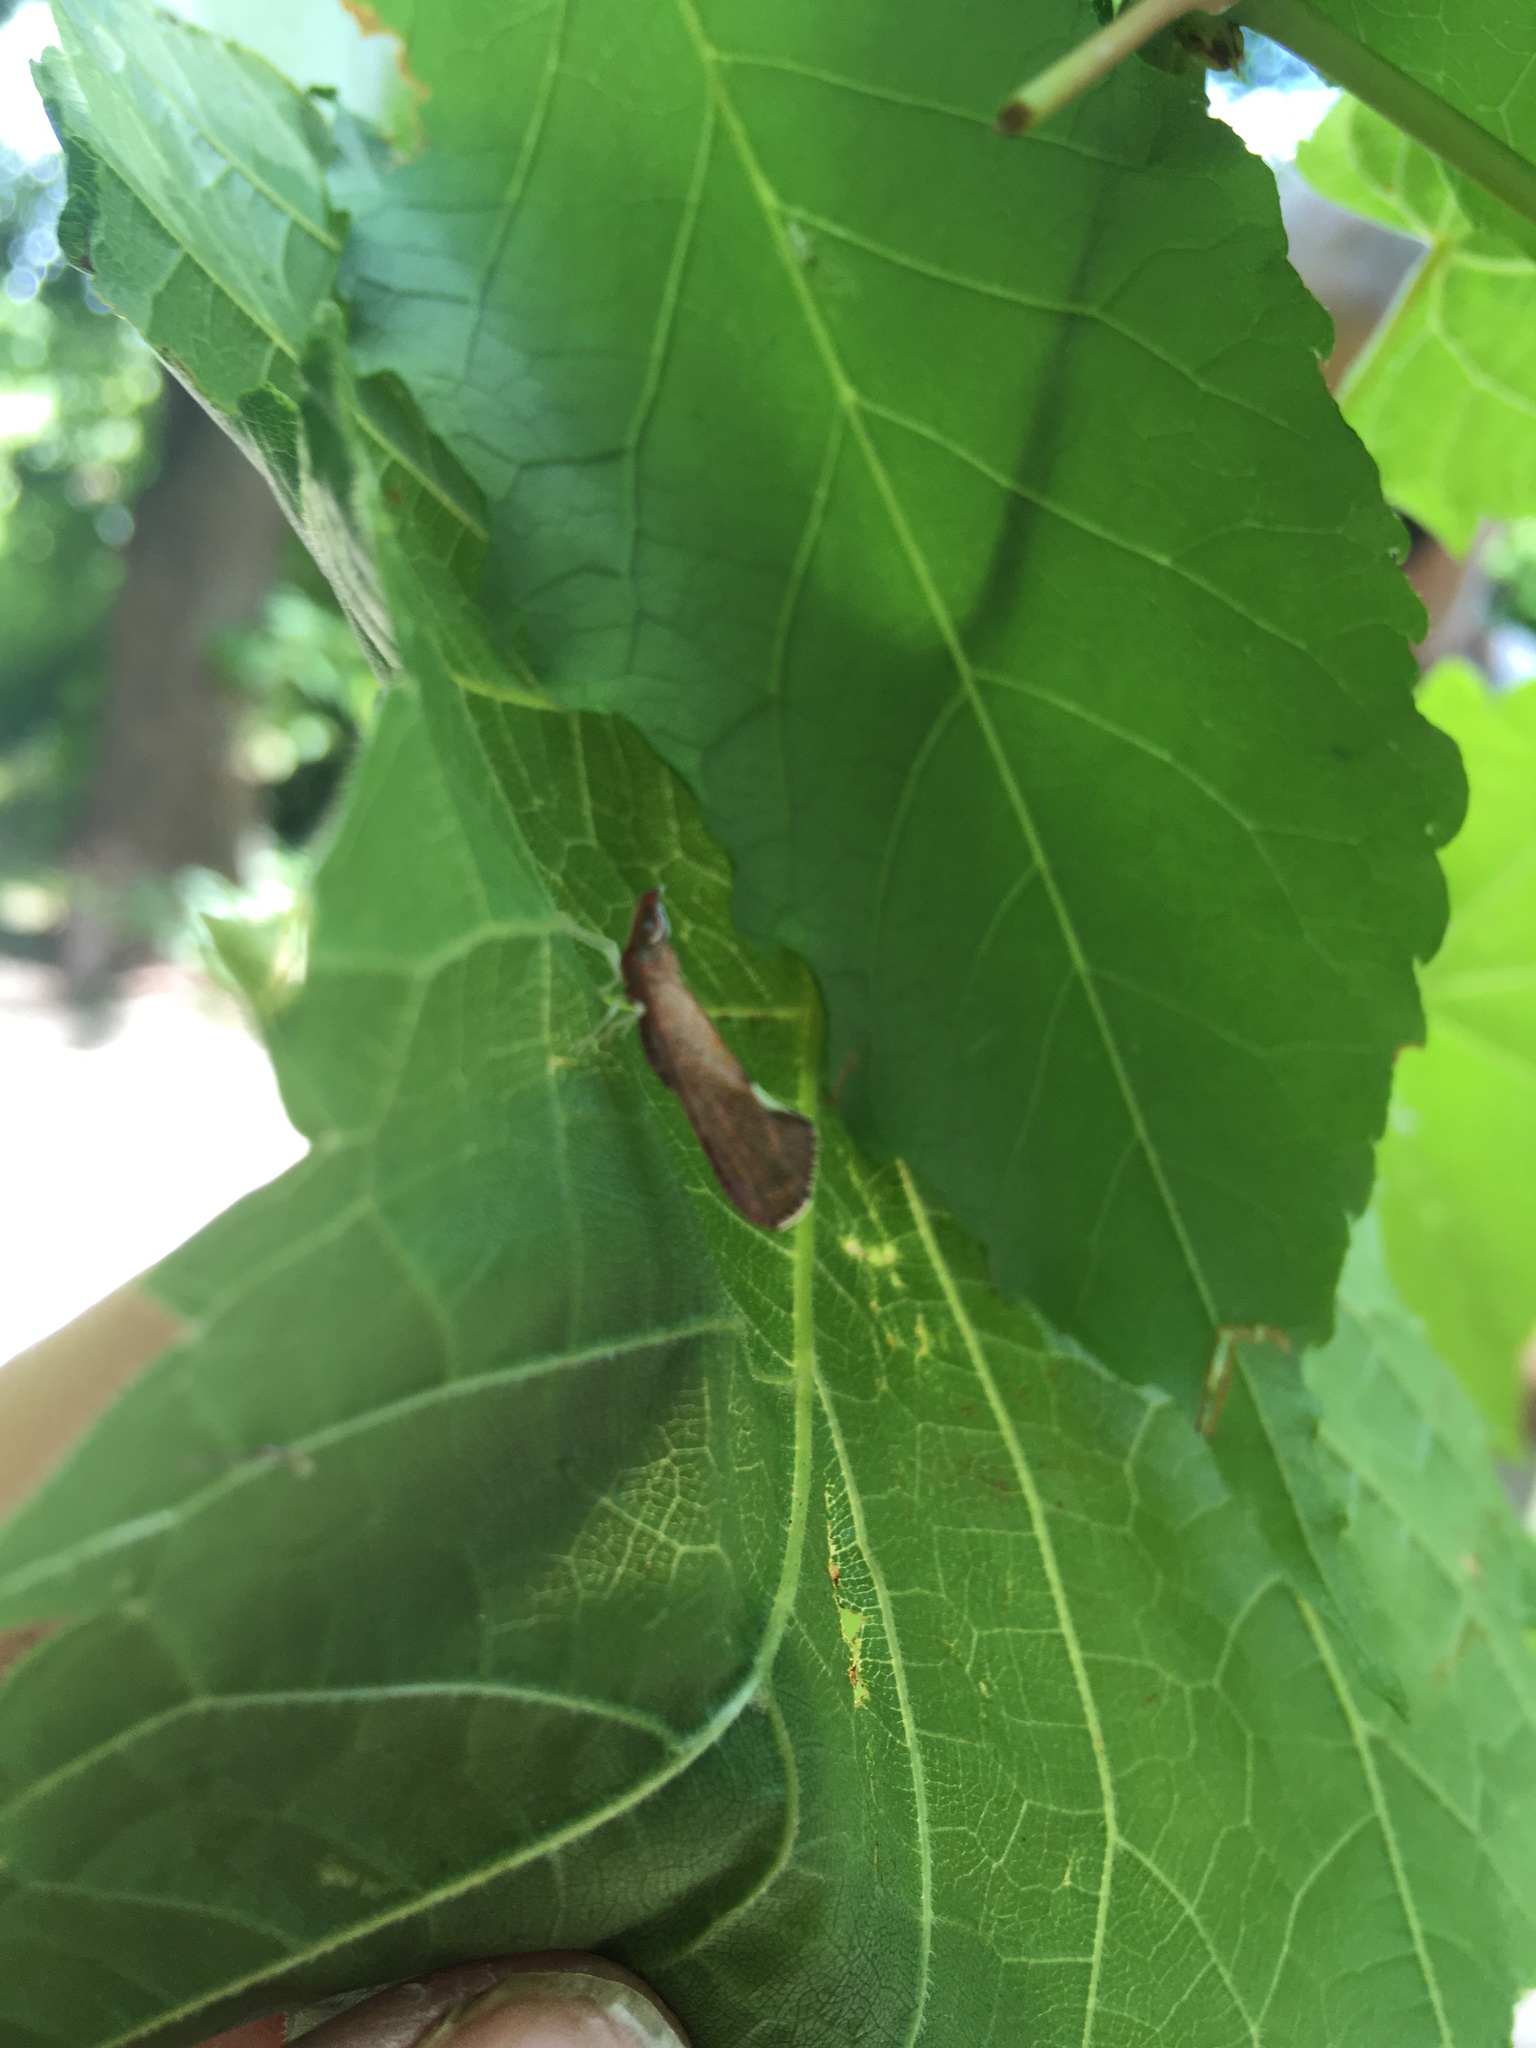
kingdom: Animalia
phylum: Arthropoda
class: Insecta
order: Hemiptera
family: Derbidae
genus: Apache
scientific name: Apache degeeri
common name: Red-fanned planthopper
